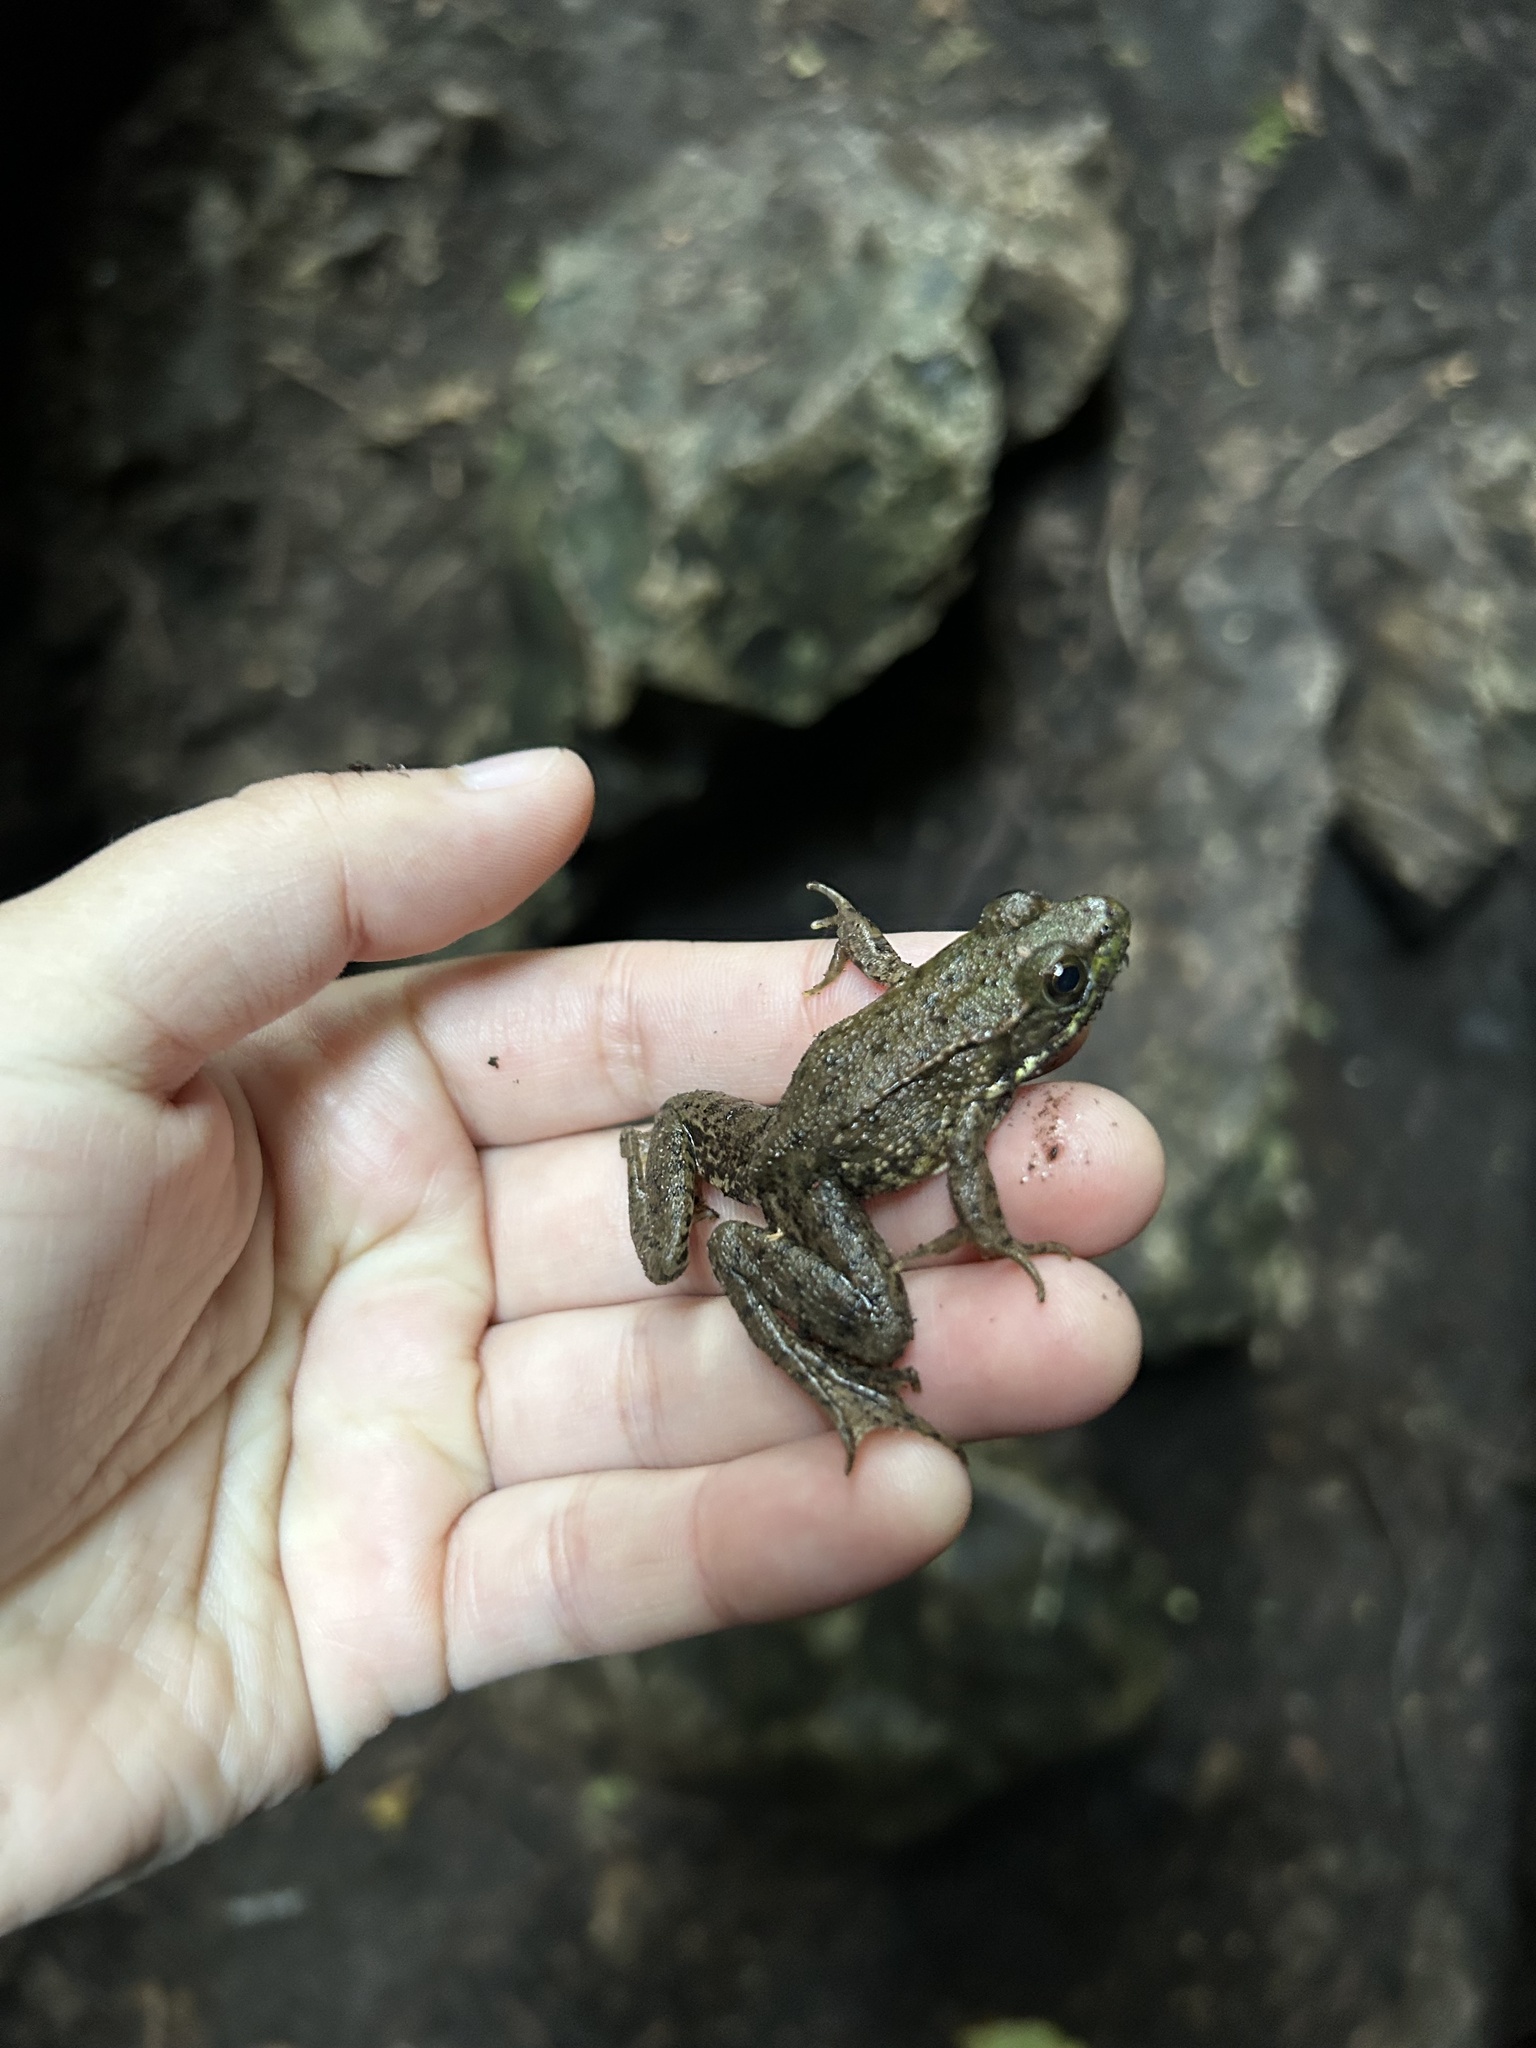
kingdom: Animalia
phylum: Chordata
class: Amphibia
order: Anura
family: Ranidae
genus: Lithobates
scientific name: Lithobates clamitans
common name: Green frog
